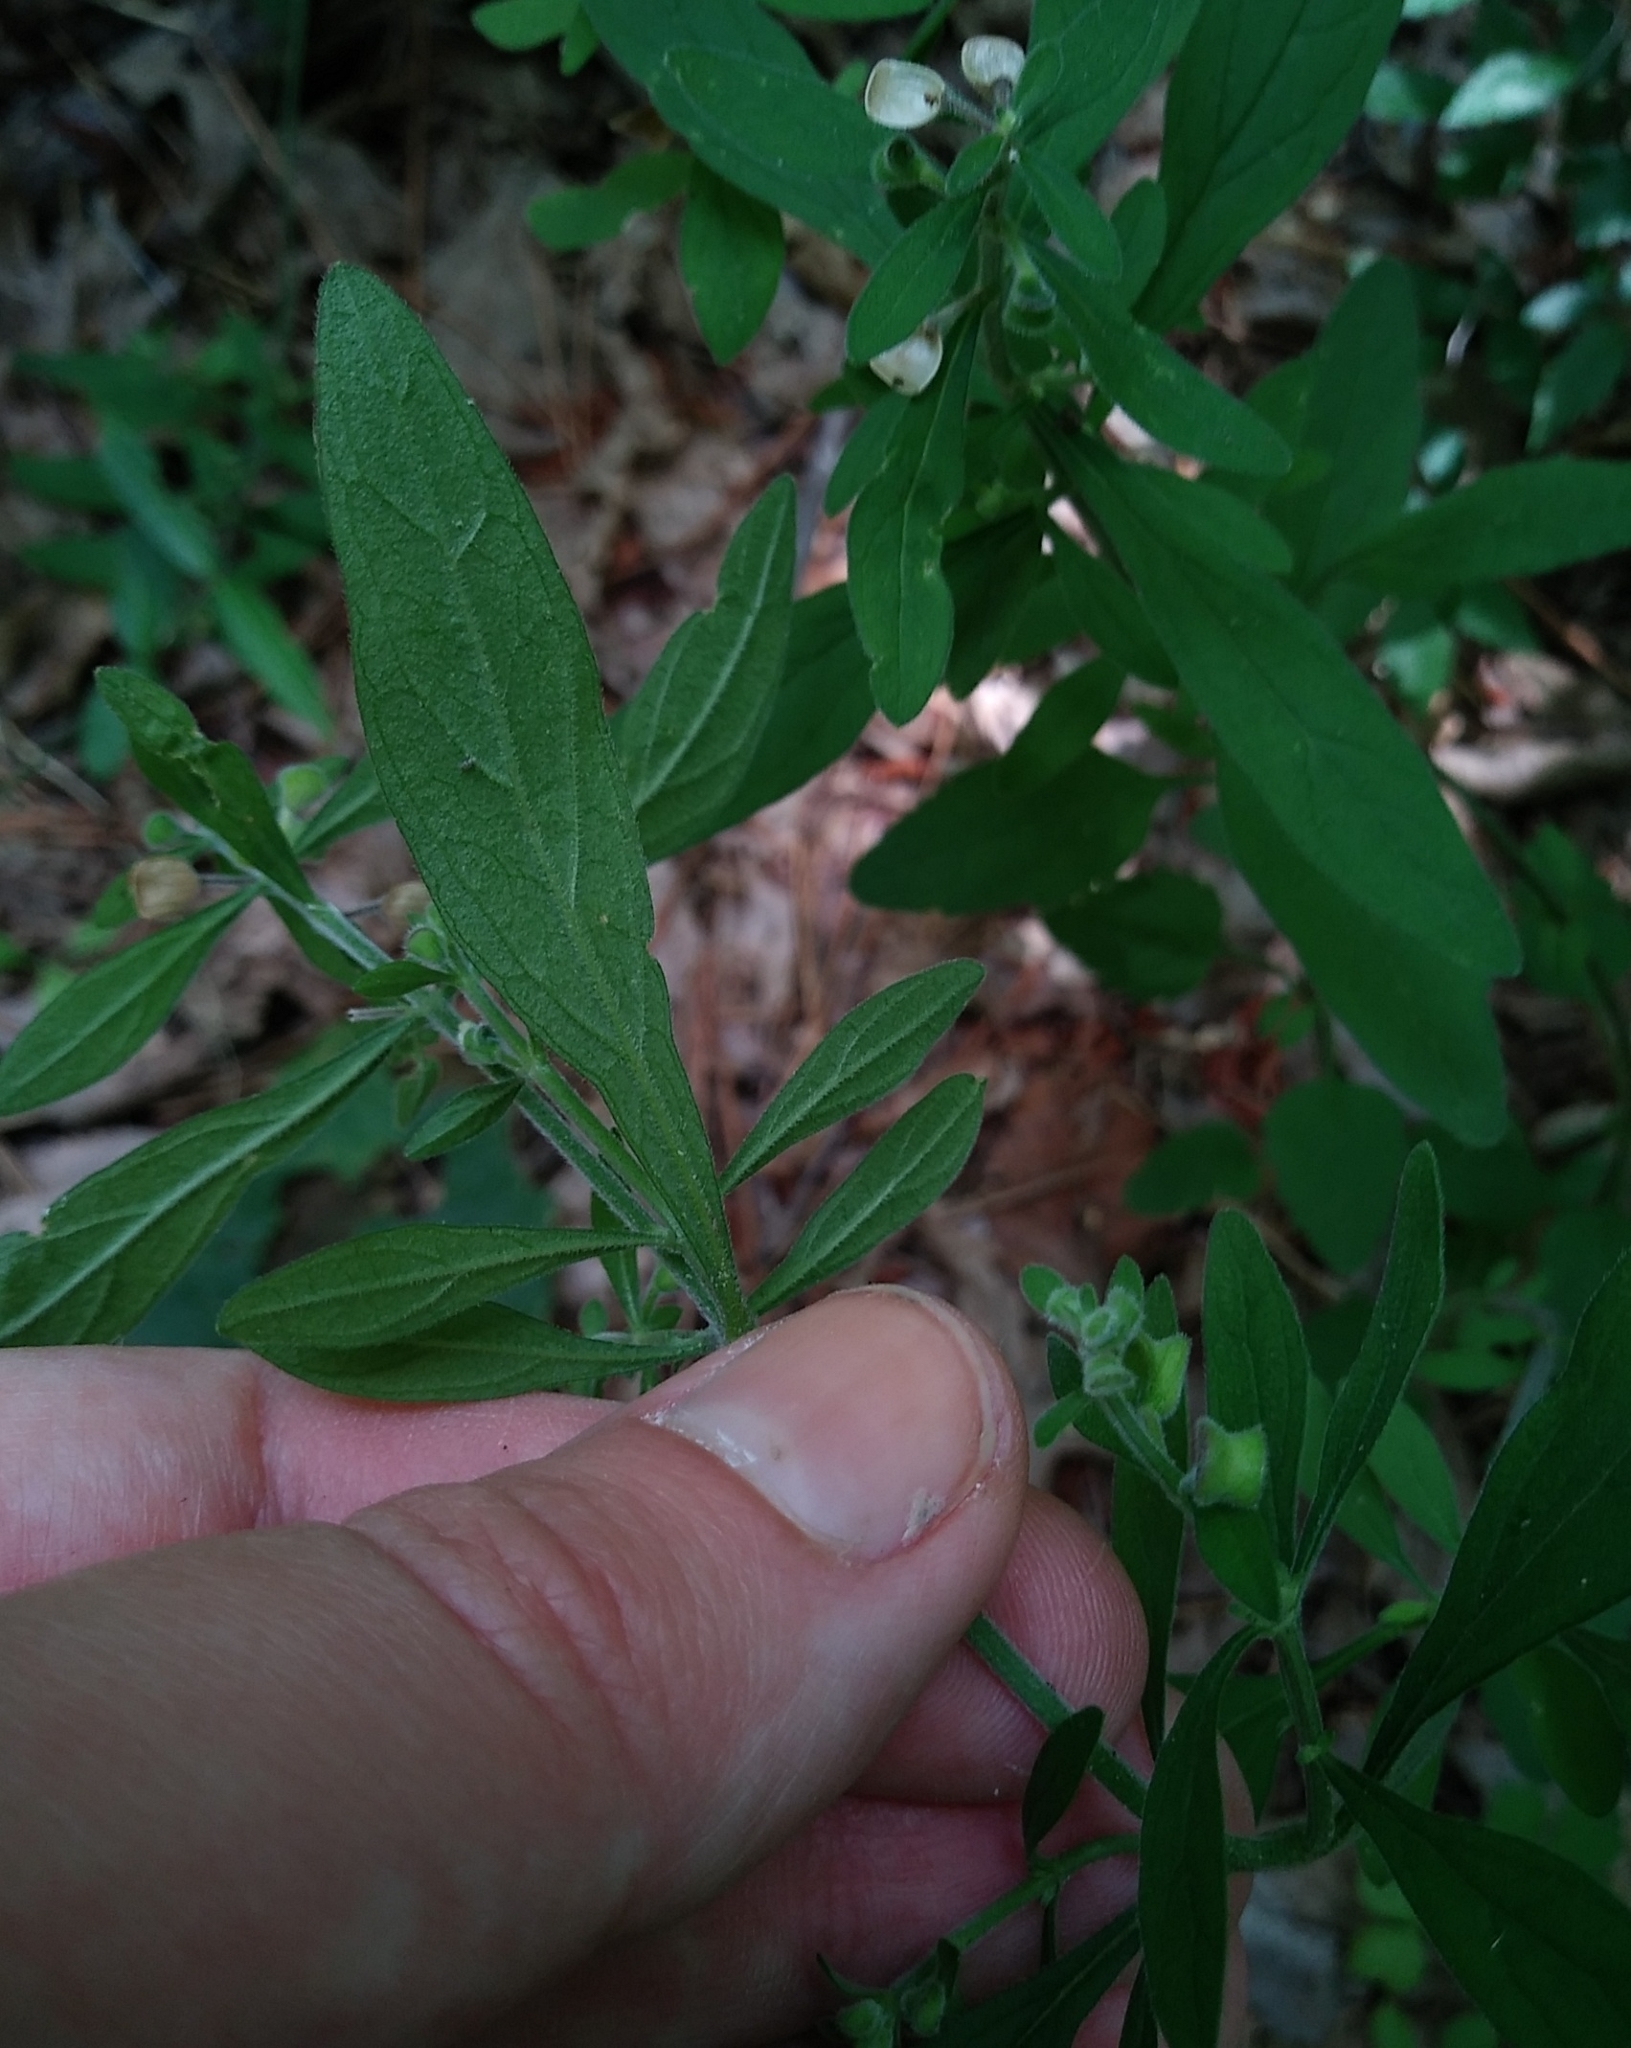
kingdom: Plantae
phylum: Tracheophyta
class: Magnoliopsida
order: Lamiales
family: Lamiaceae
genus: Scutellaria
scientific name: Scutellaria integrifolia
